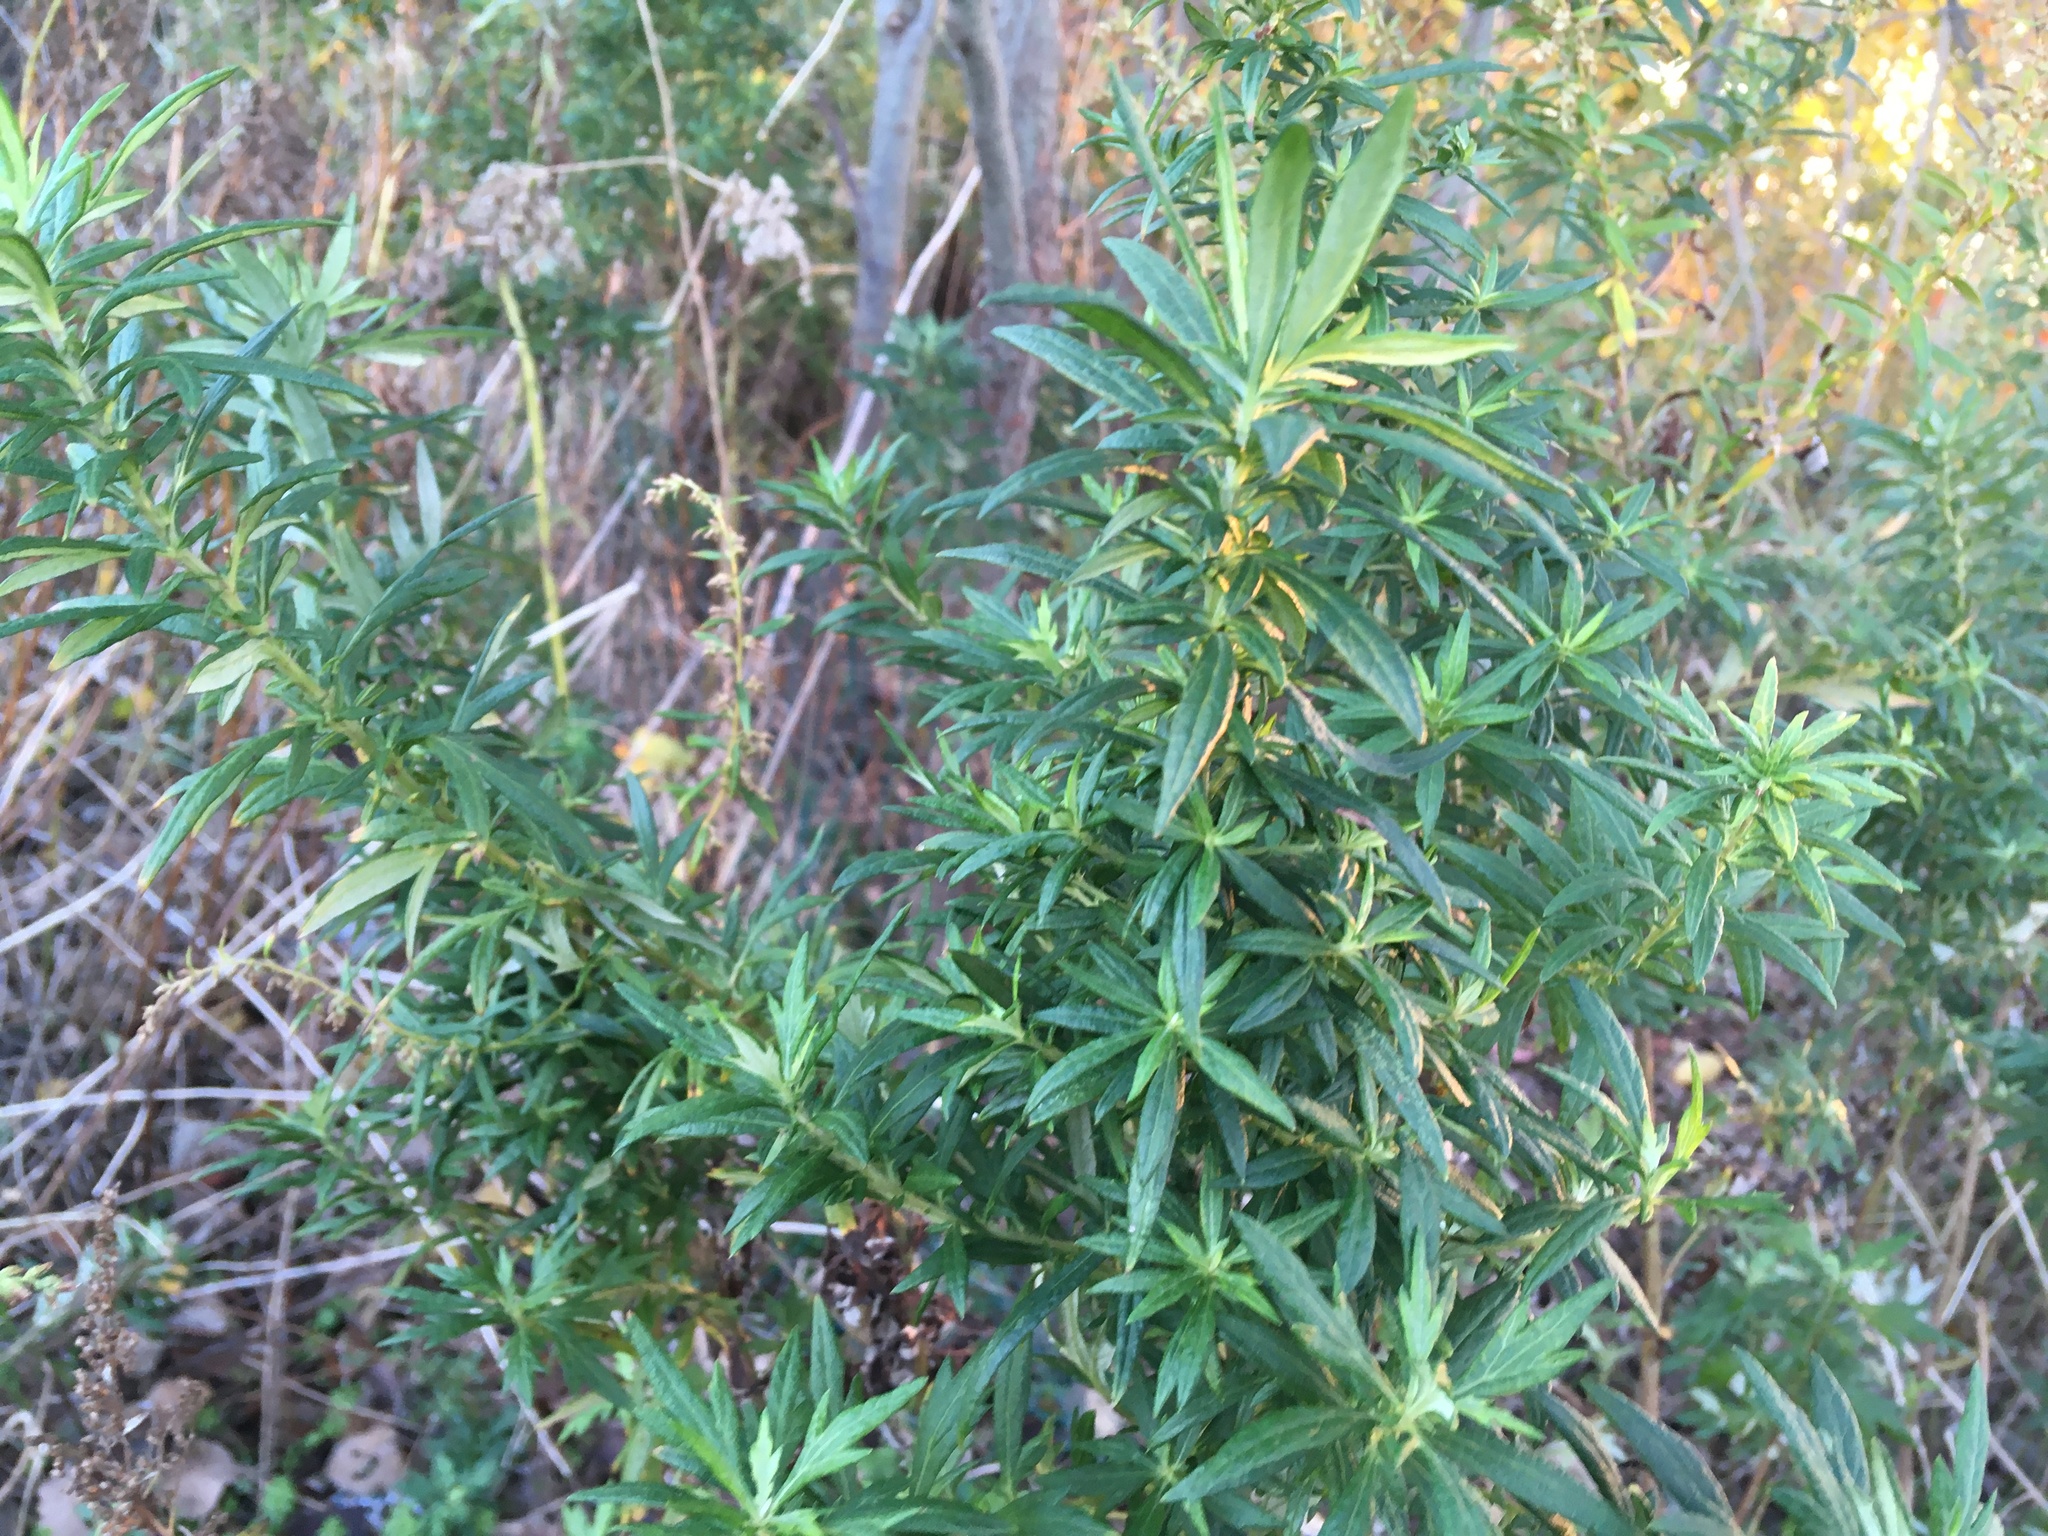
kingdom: Plantae
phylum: Tracheophyta
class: Magnoliopsida
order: Asterales
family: Asteraceae
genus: Artemisia
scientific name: Artemisia vulgaris
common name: Mugwort
